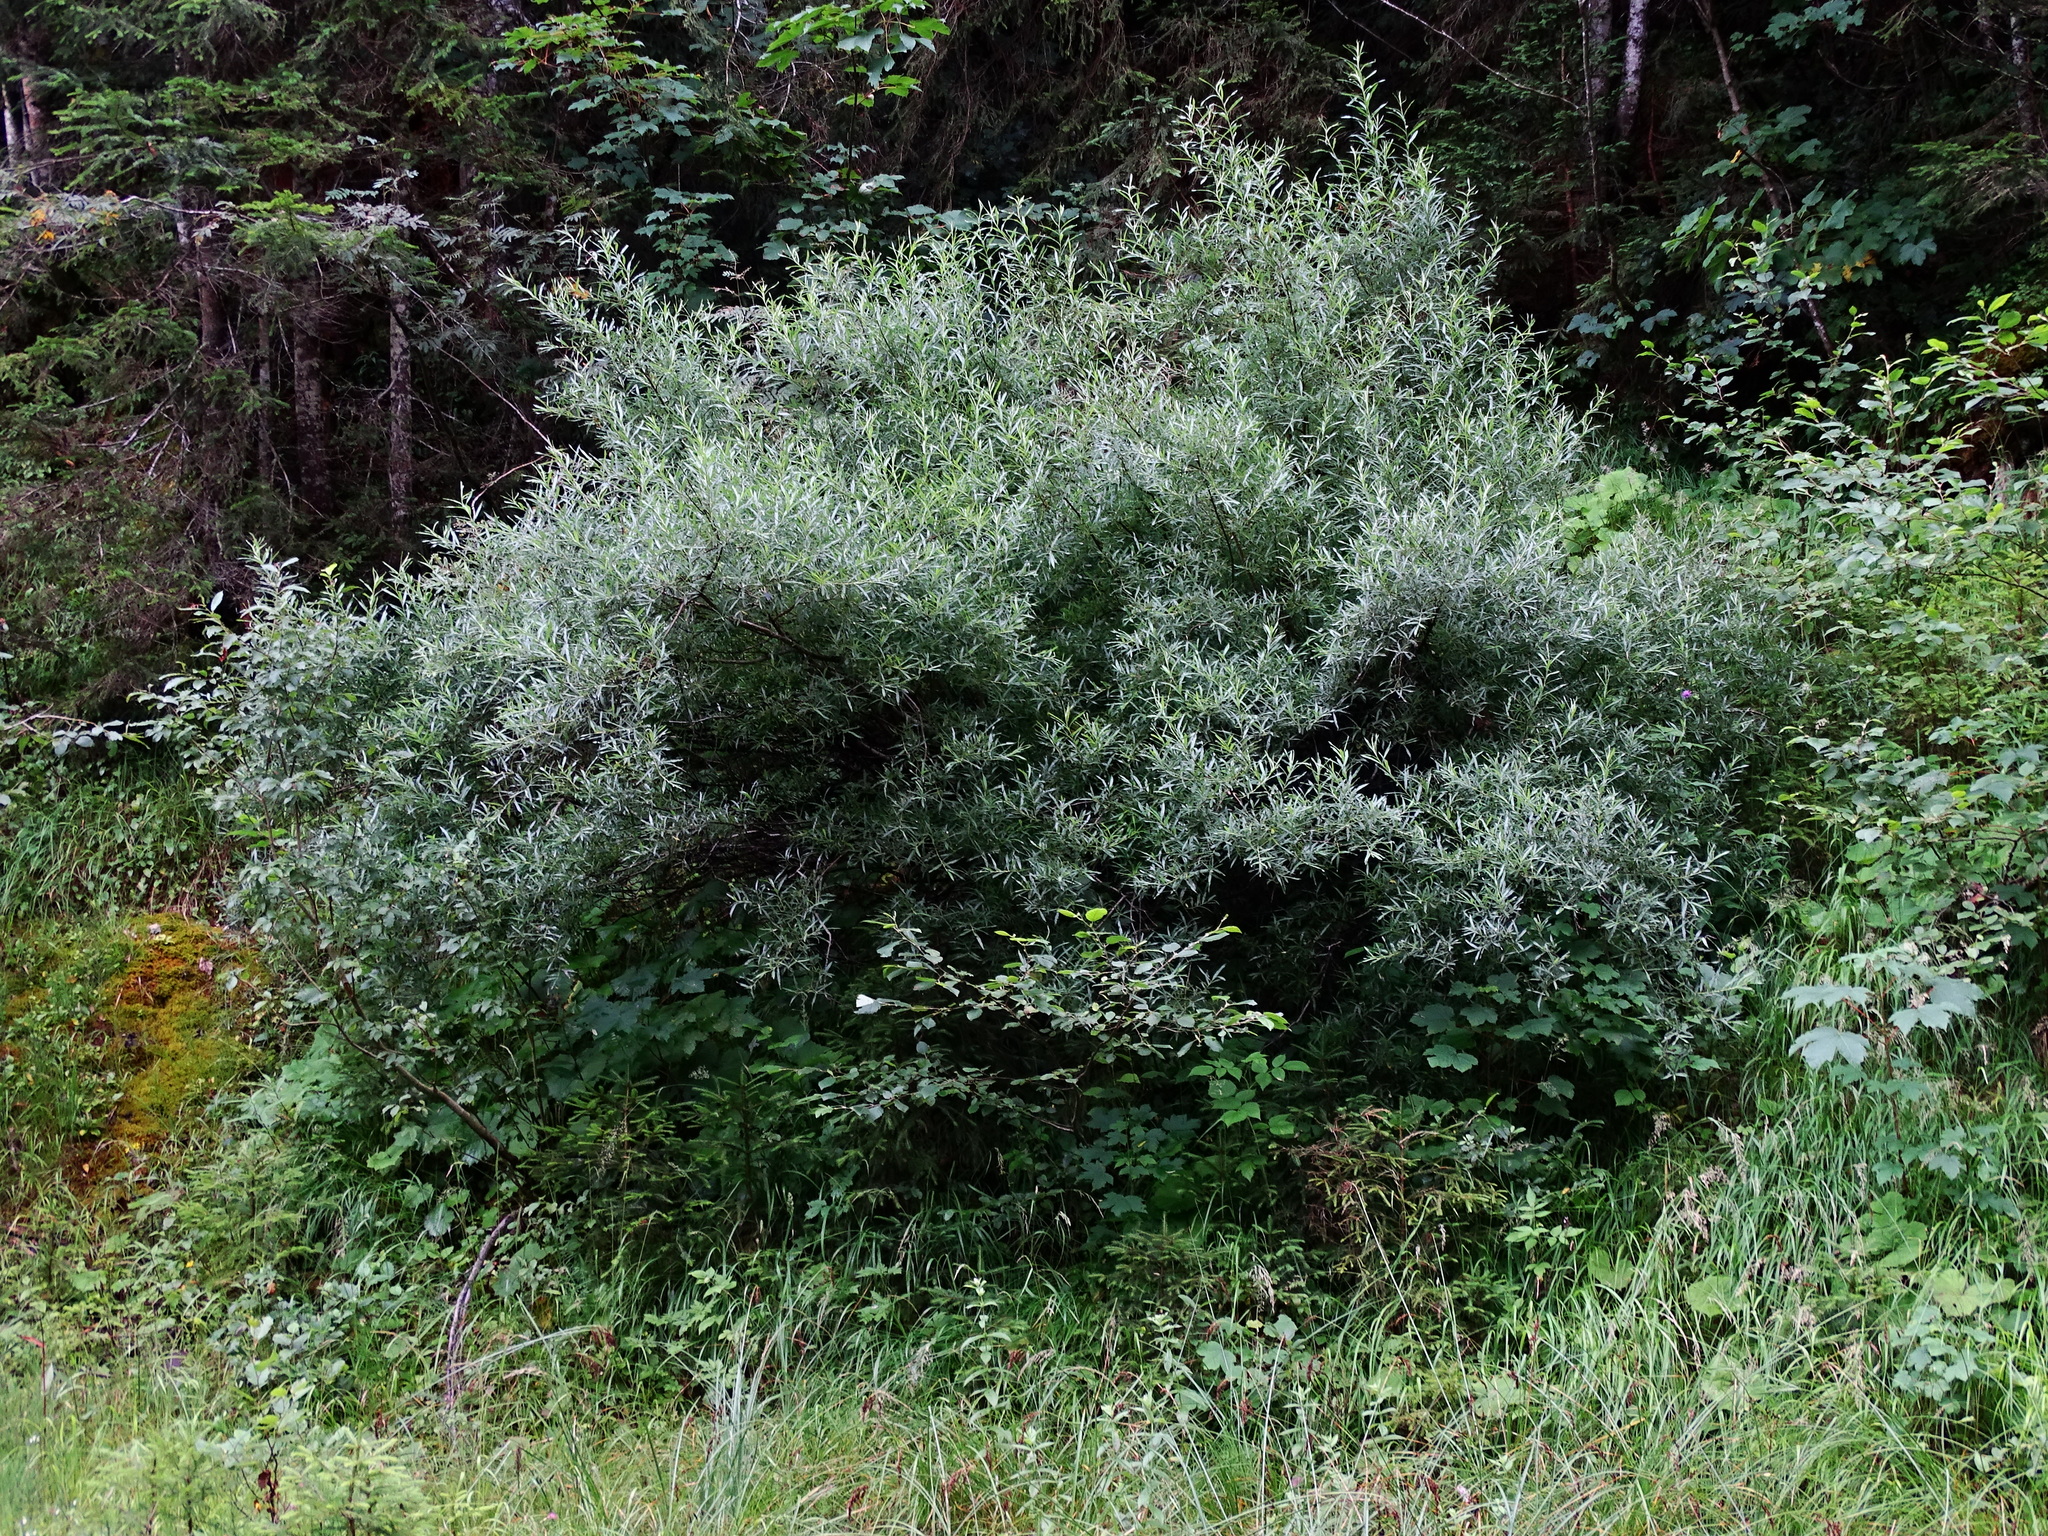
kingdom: Plantae
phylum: Tracheophyta
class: Magnoliopsida
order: Malpighiales
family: Salicaceae
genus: Salix
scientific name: Salix eleagnos
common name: Elaeagnus willow
